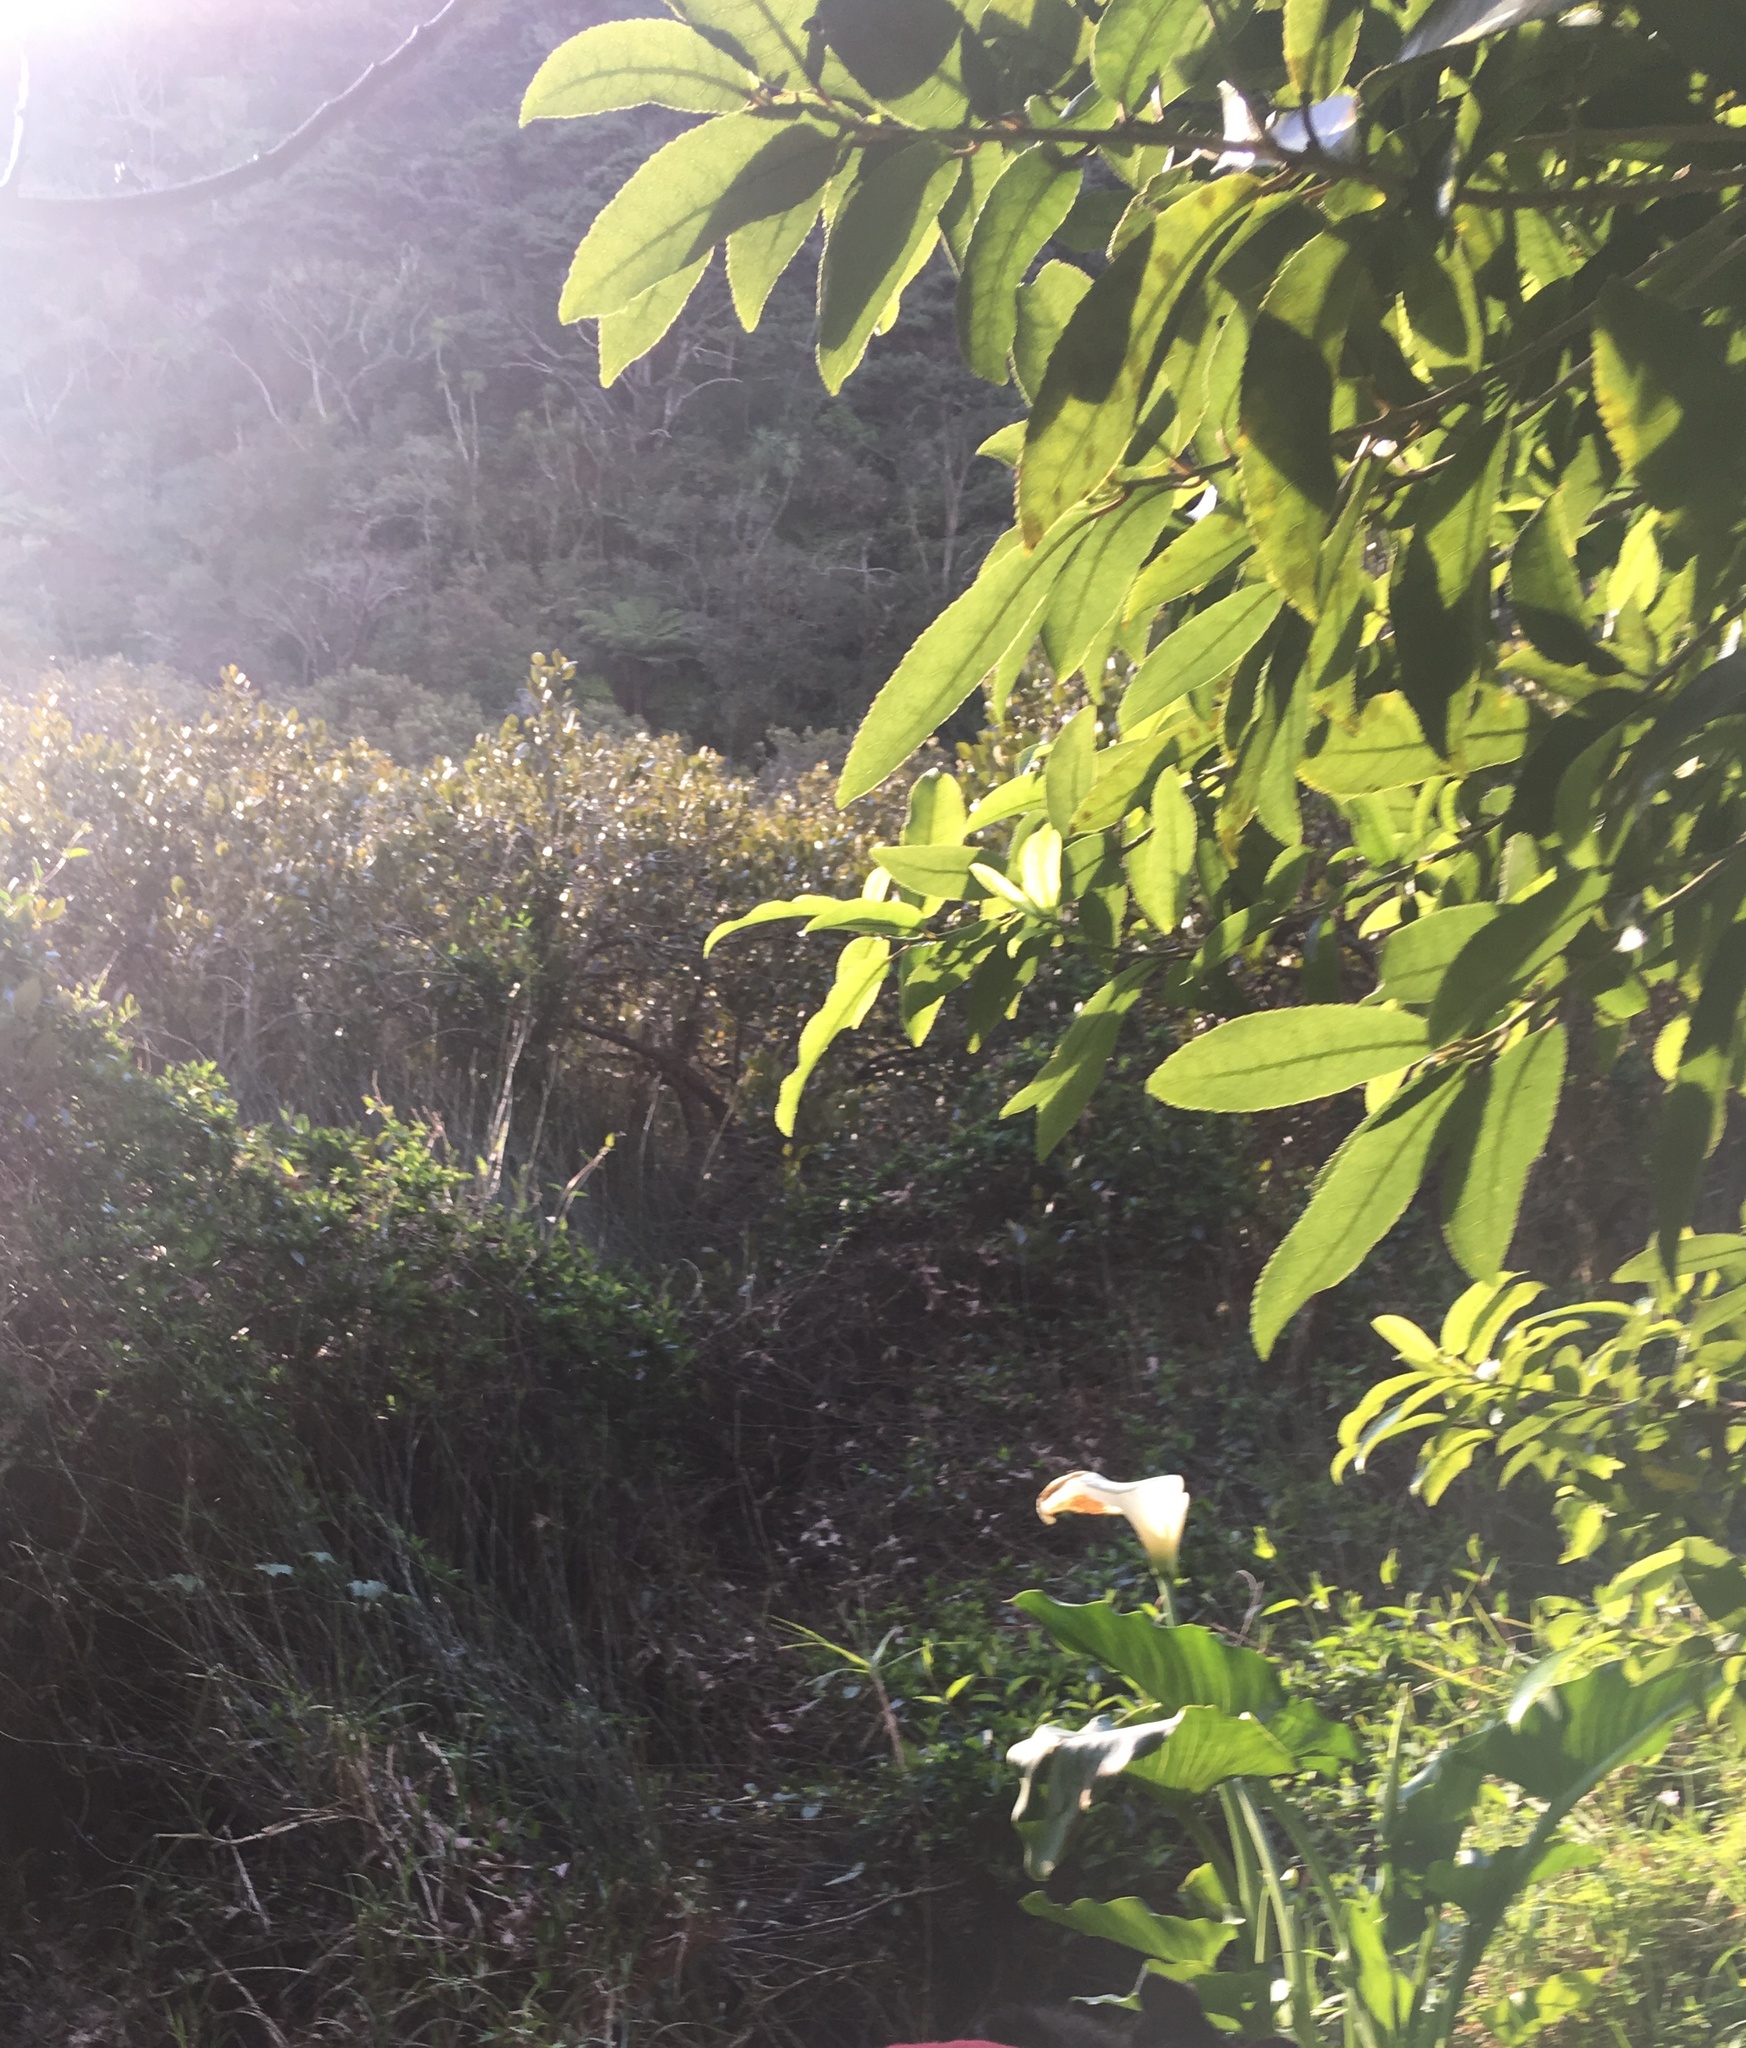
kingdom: Plantae
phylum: Tracheophyta
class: Magnoliopsida
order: Malpighiales
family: Violaceae
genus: Melicytus
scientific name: Melicytus ramiflorus
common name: Mahoe
